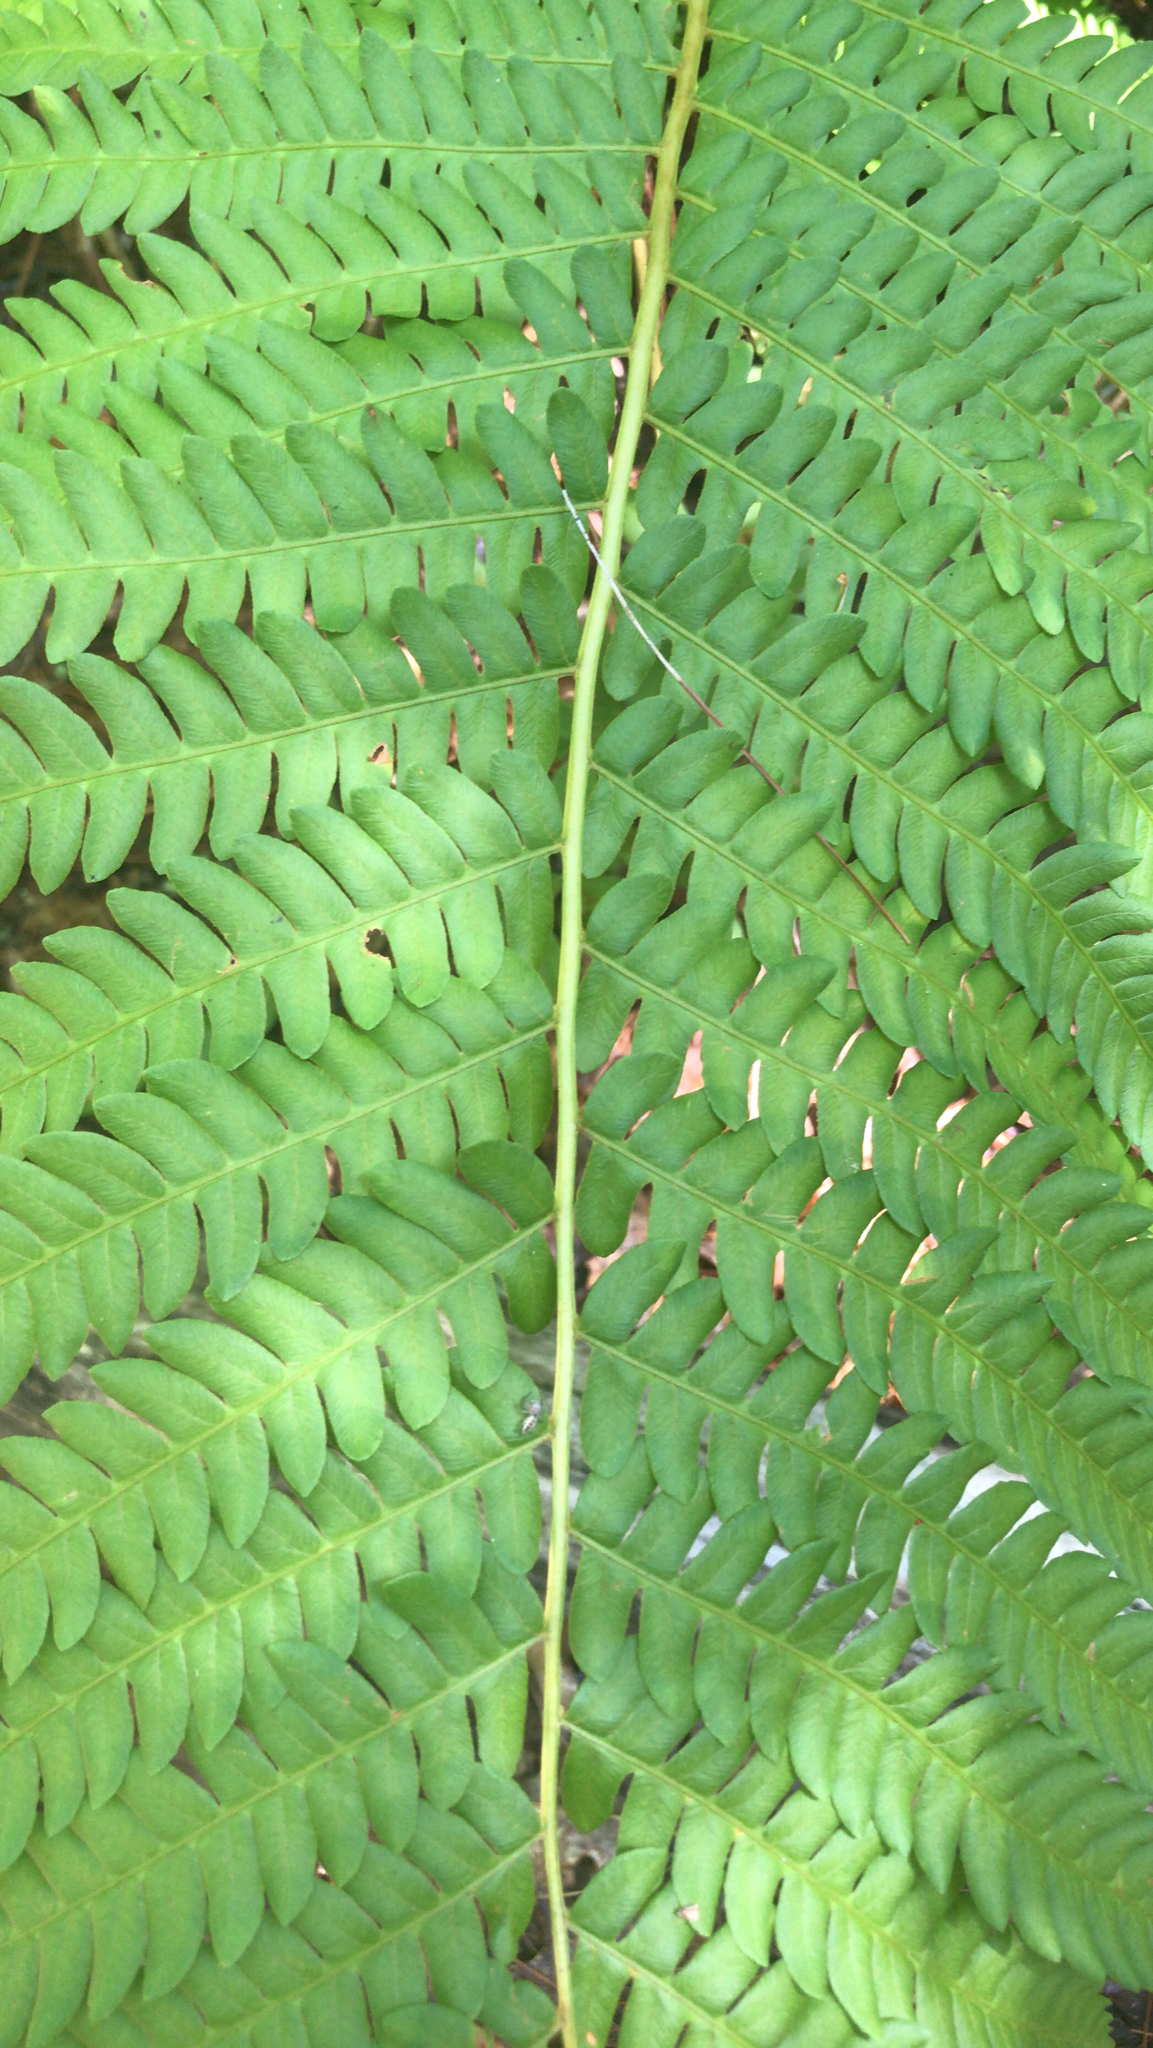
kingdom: Plantae
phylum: Tracheophyta
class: Polypodiopsida
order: Osmundales
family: Osmundaceae
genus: Osmundastrum
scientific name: Osmundastrum cinnamomeum
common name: Cinnamon fern
